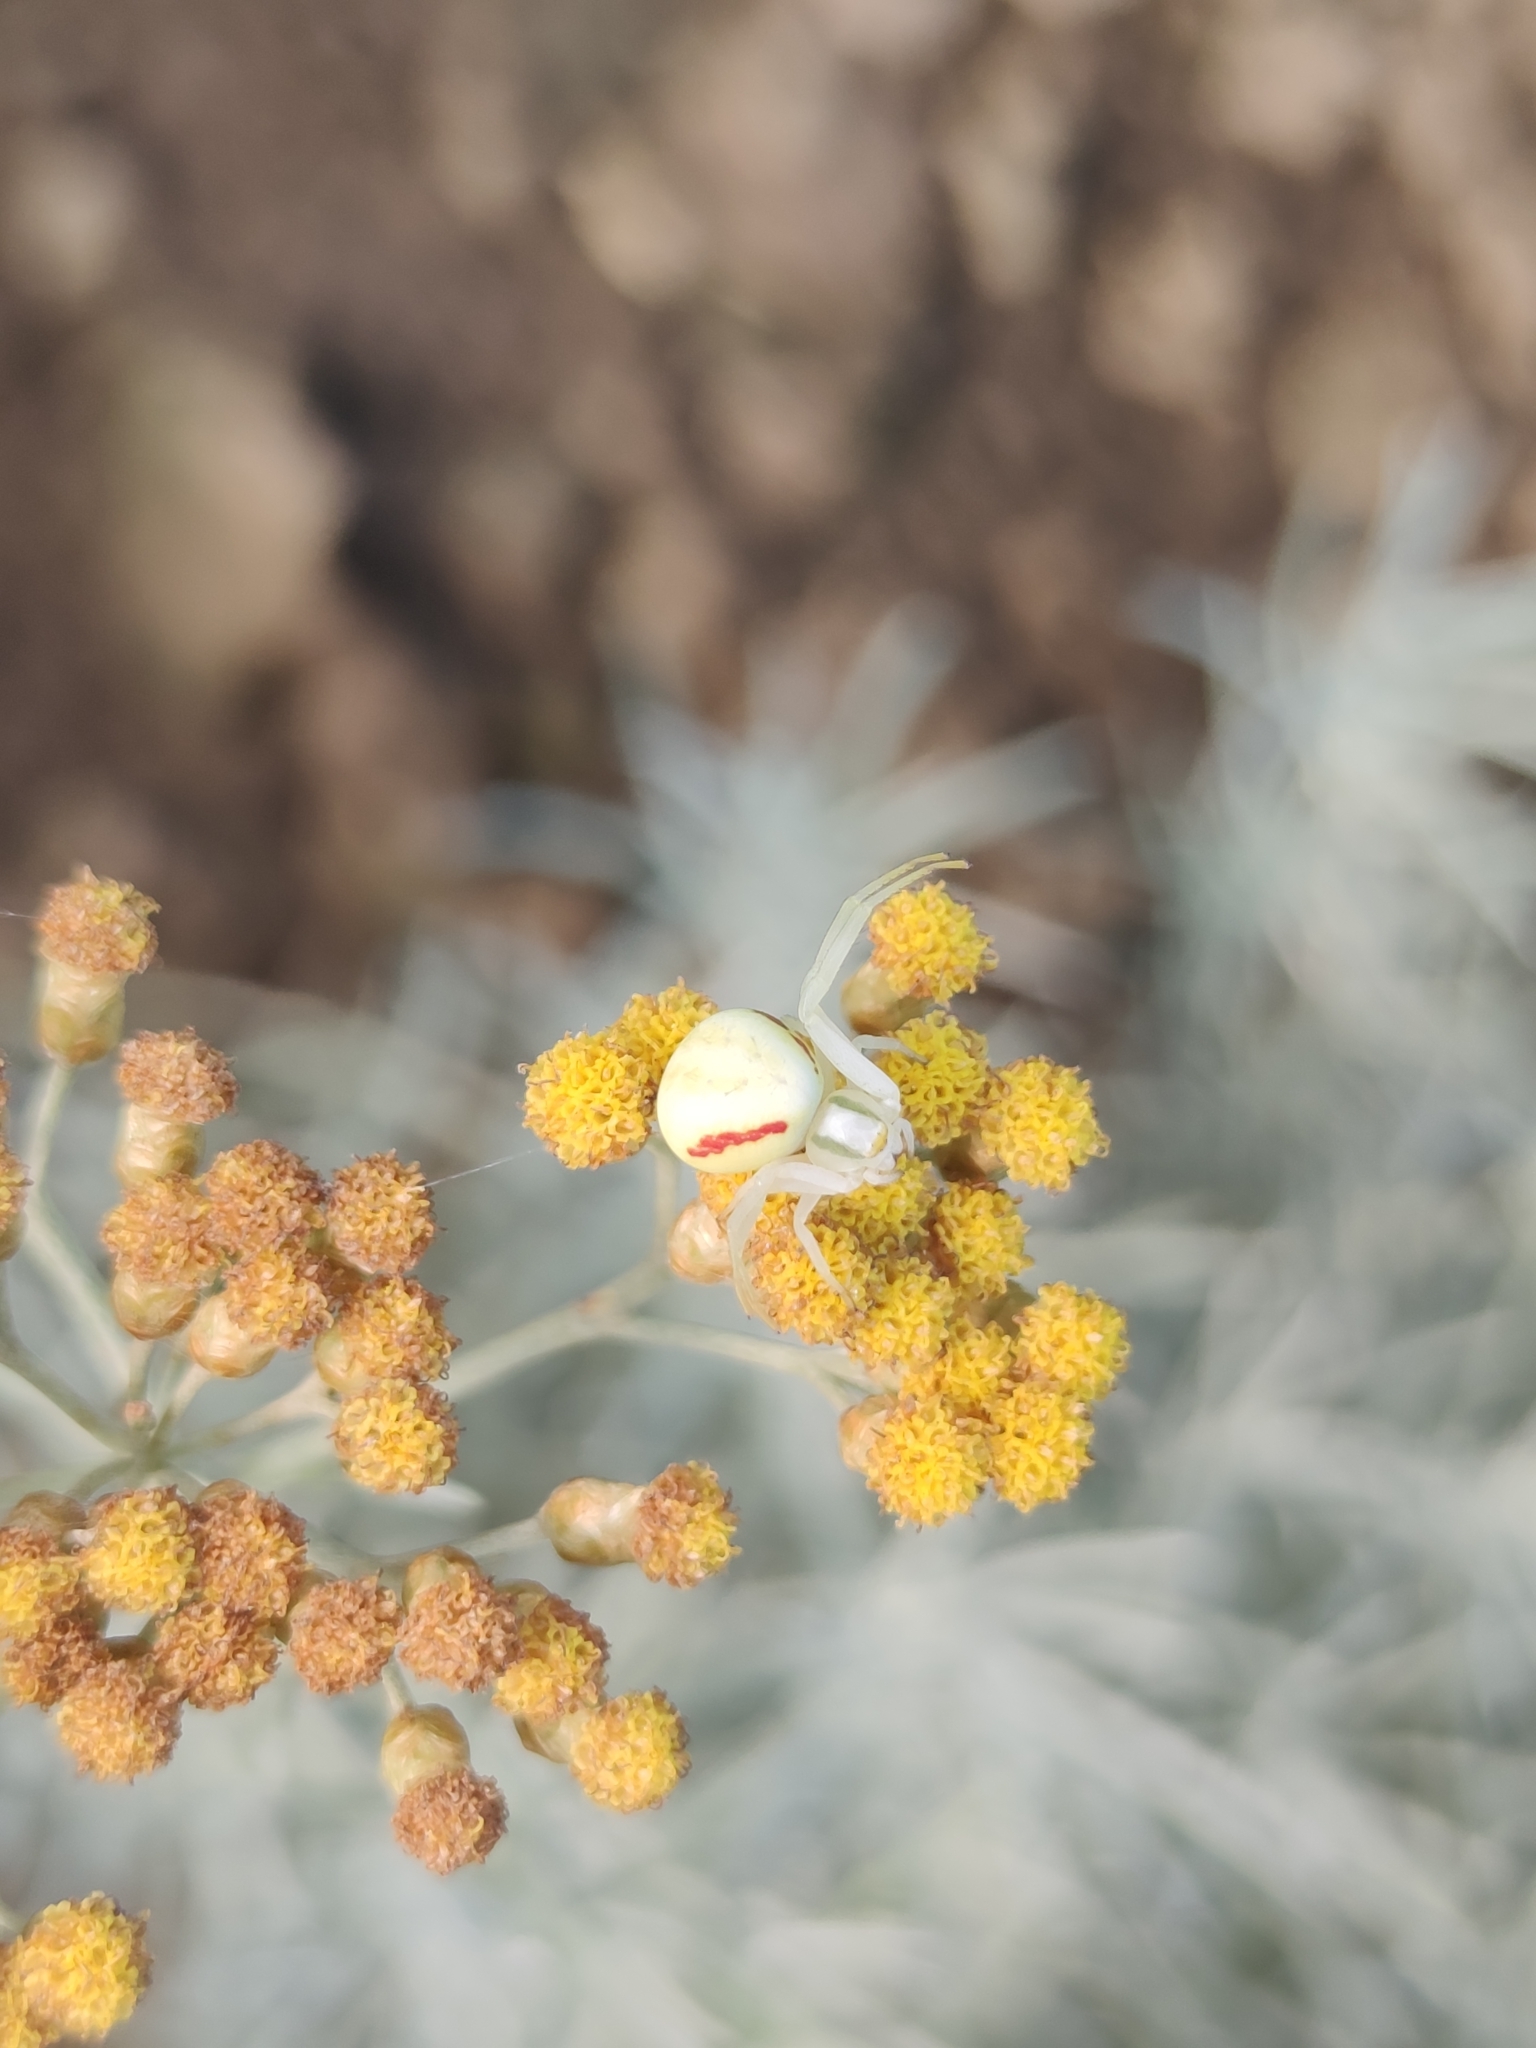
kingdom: Animalia
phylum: Arthropoda
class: Arachnida
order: Araneae
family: Thomisidae
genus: Misumena
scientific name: Misumena vatia
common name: Goldenrod crab spider
